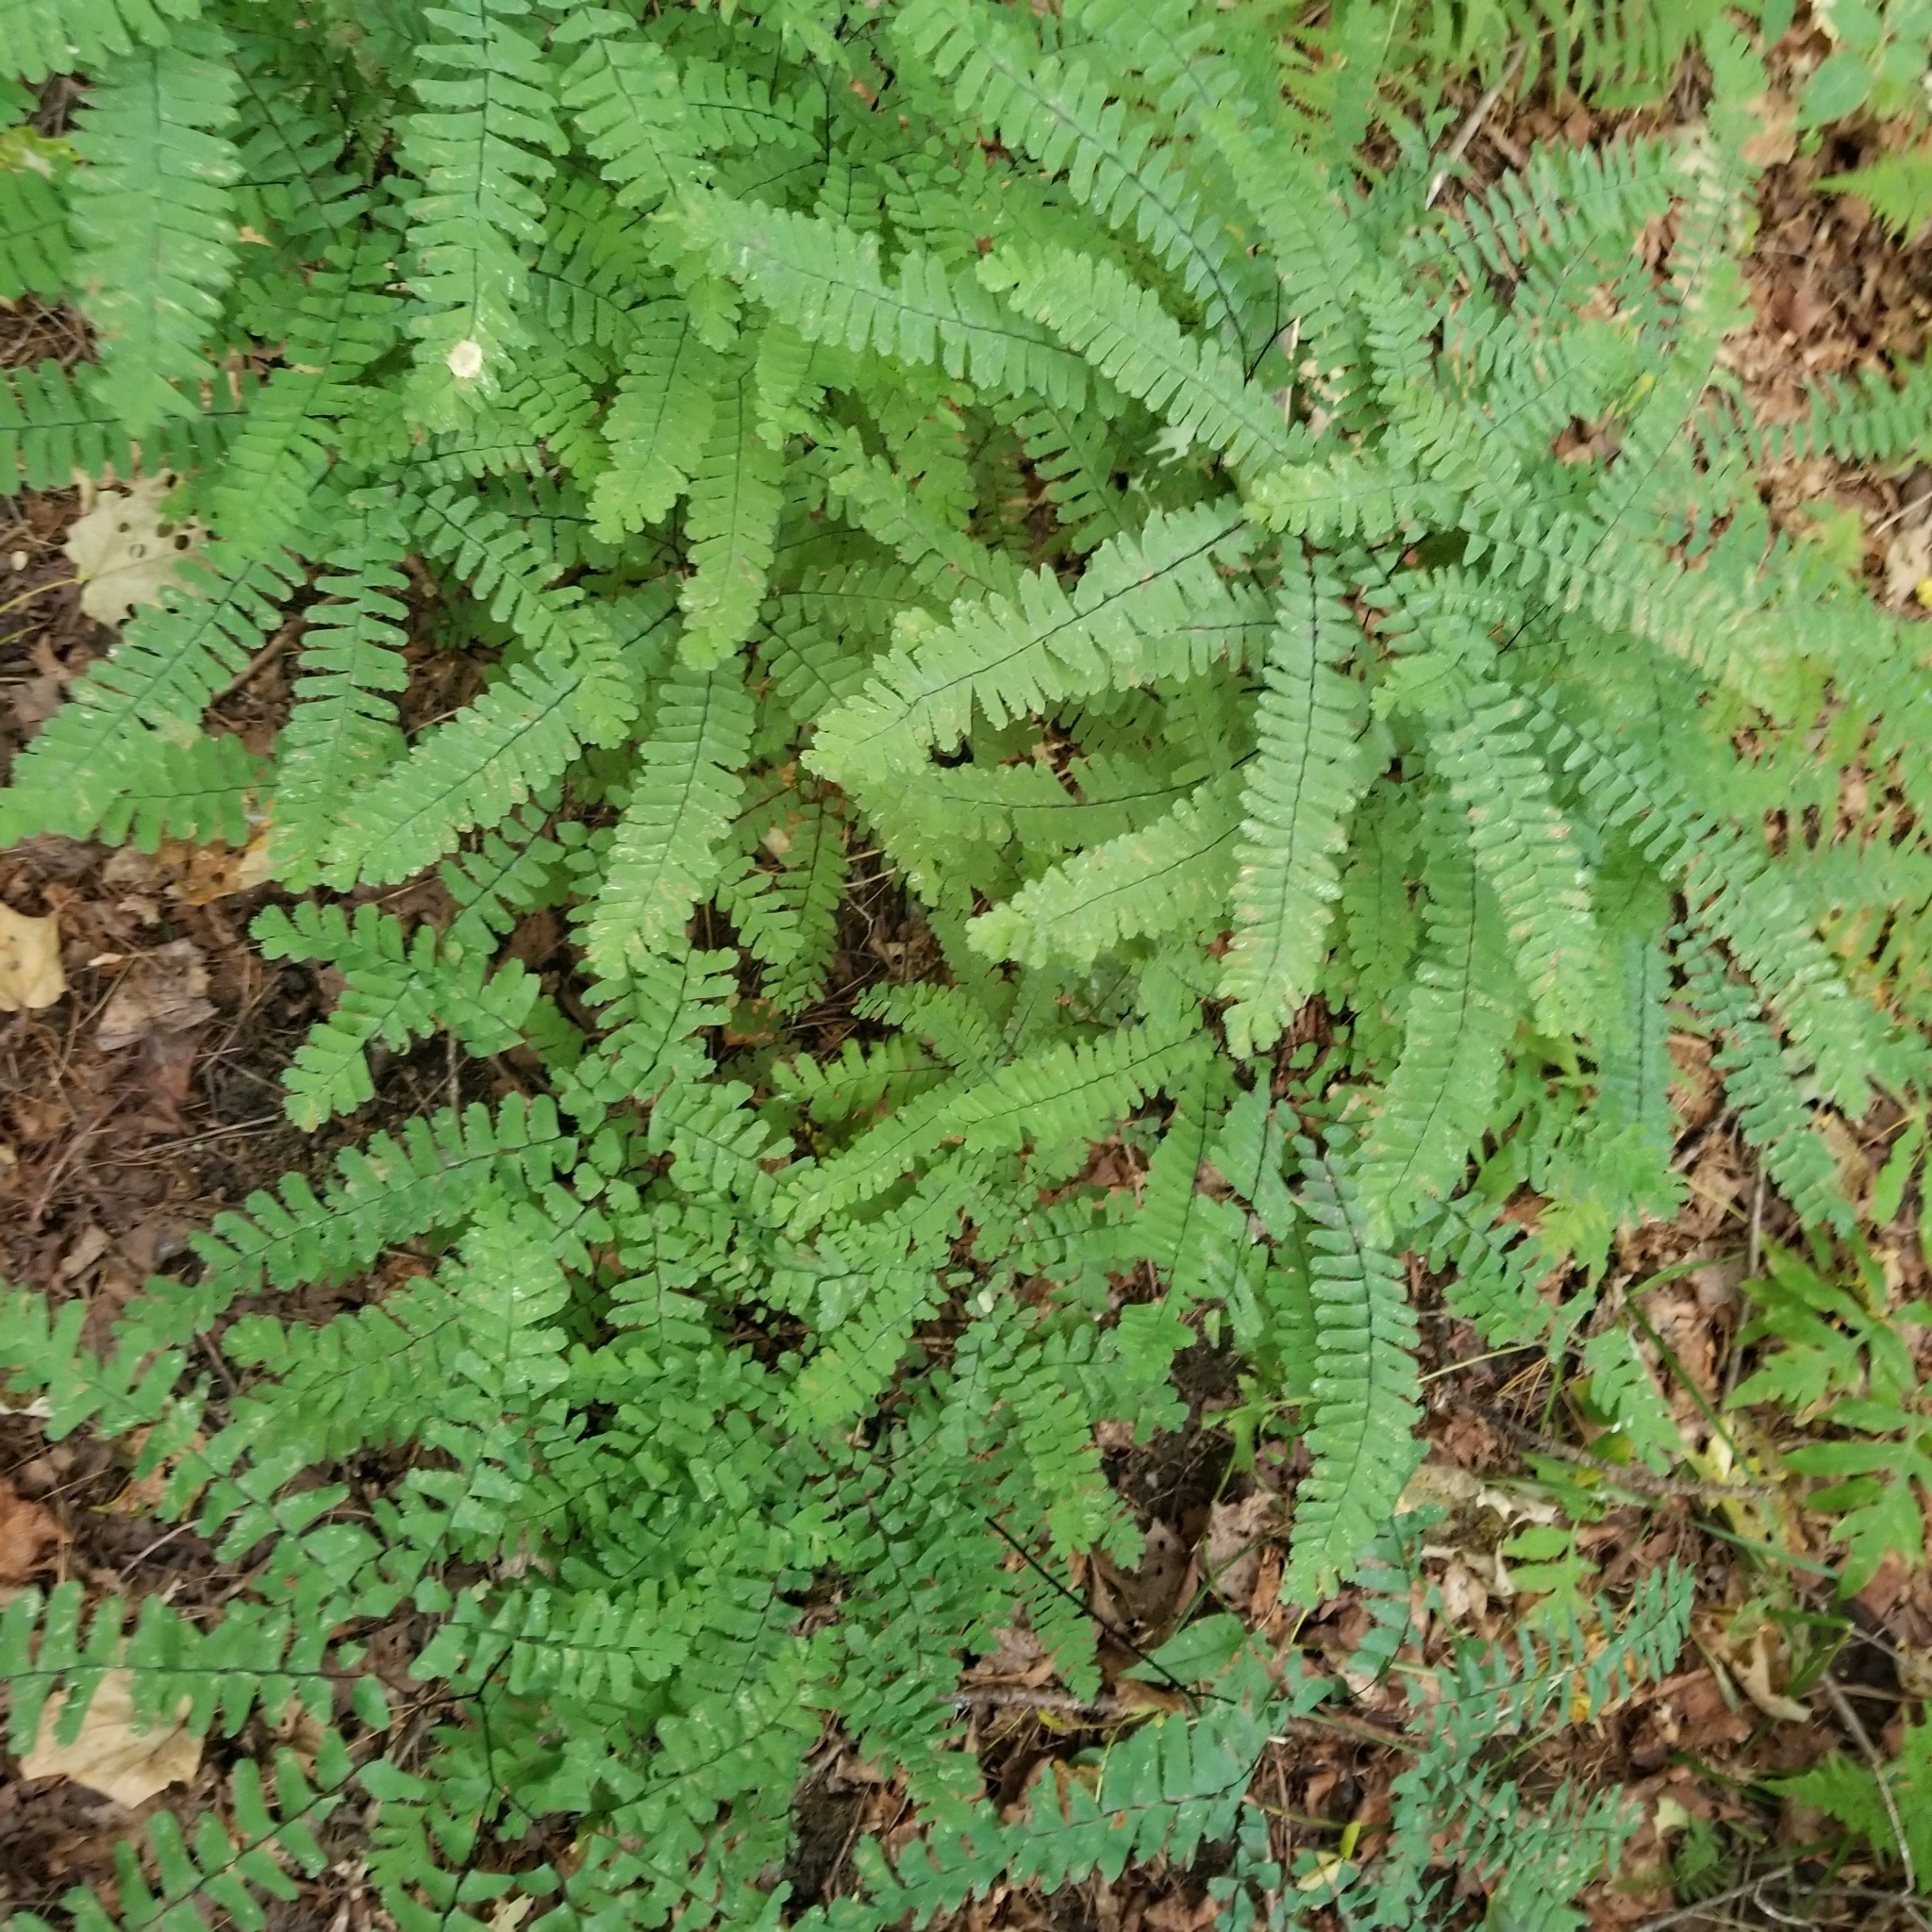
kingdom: Plantae
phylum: Tracheophyta
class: Polypodiopsida
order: Polypodiales
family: Pteridaceae
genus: Adiantum
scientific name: Adiantum pedatum
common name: Five-finger fern
